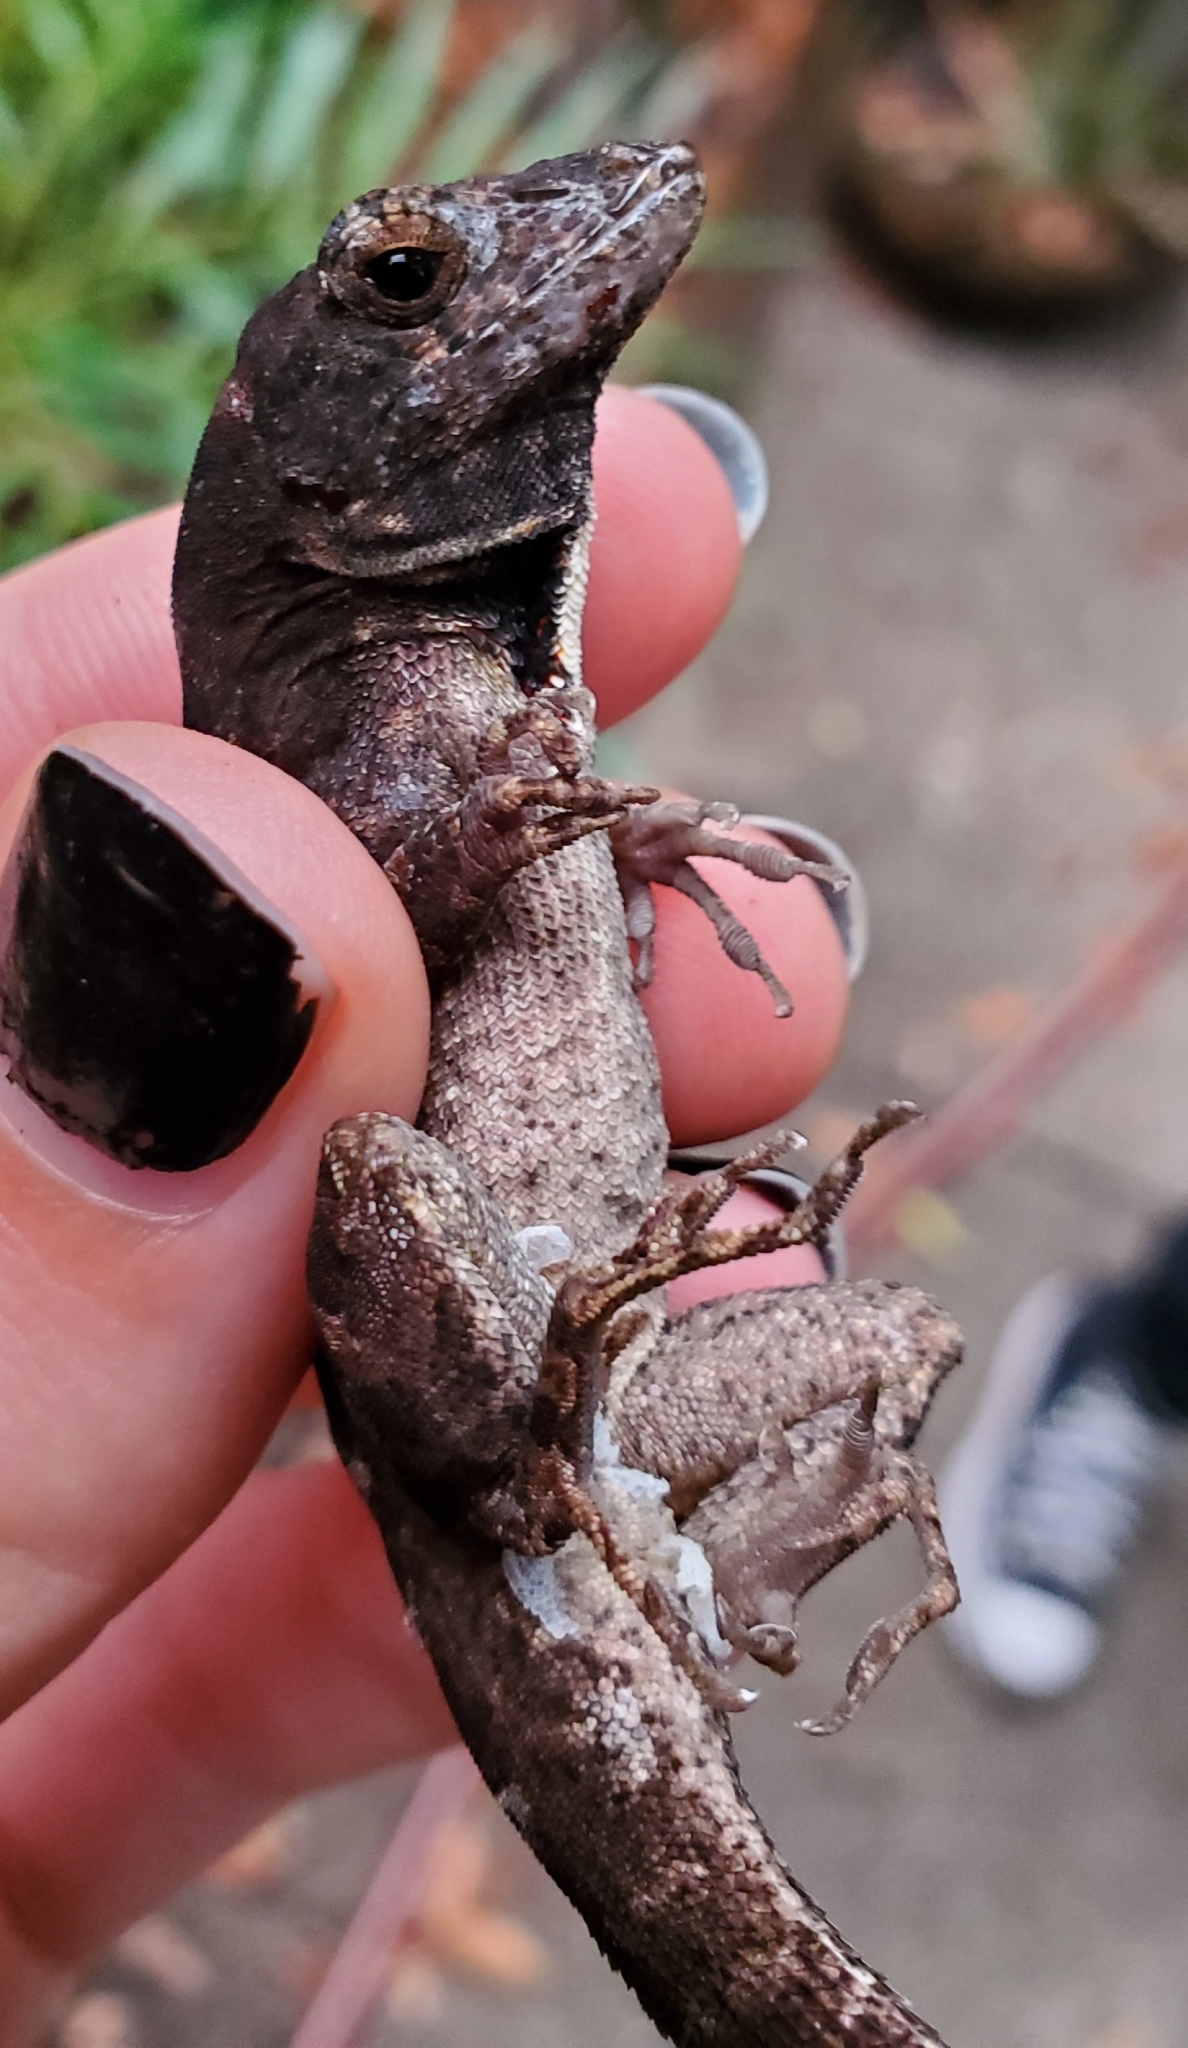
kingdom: Animalia
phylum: Chordata
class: Squamata
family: Dactyloidae
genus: Anolis
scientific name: Anolis sagrei
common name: Brown anole
